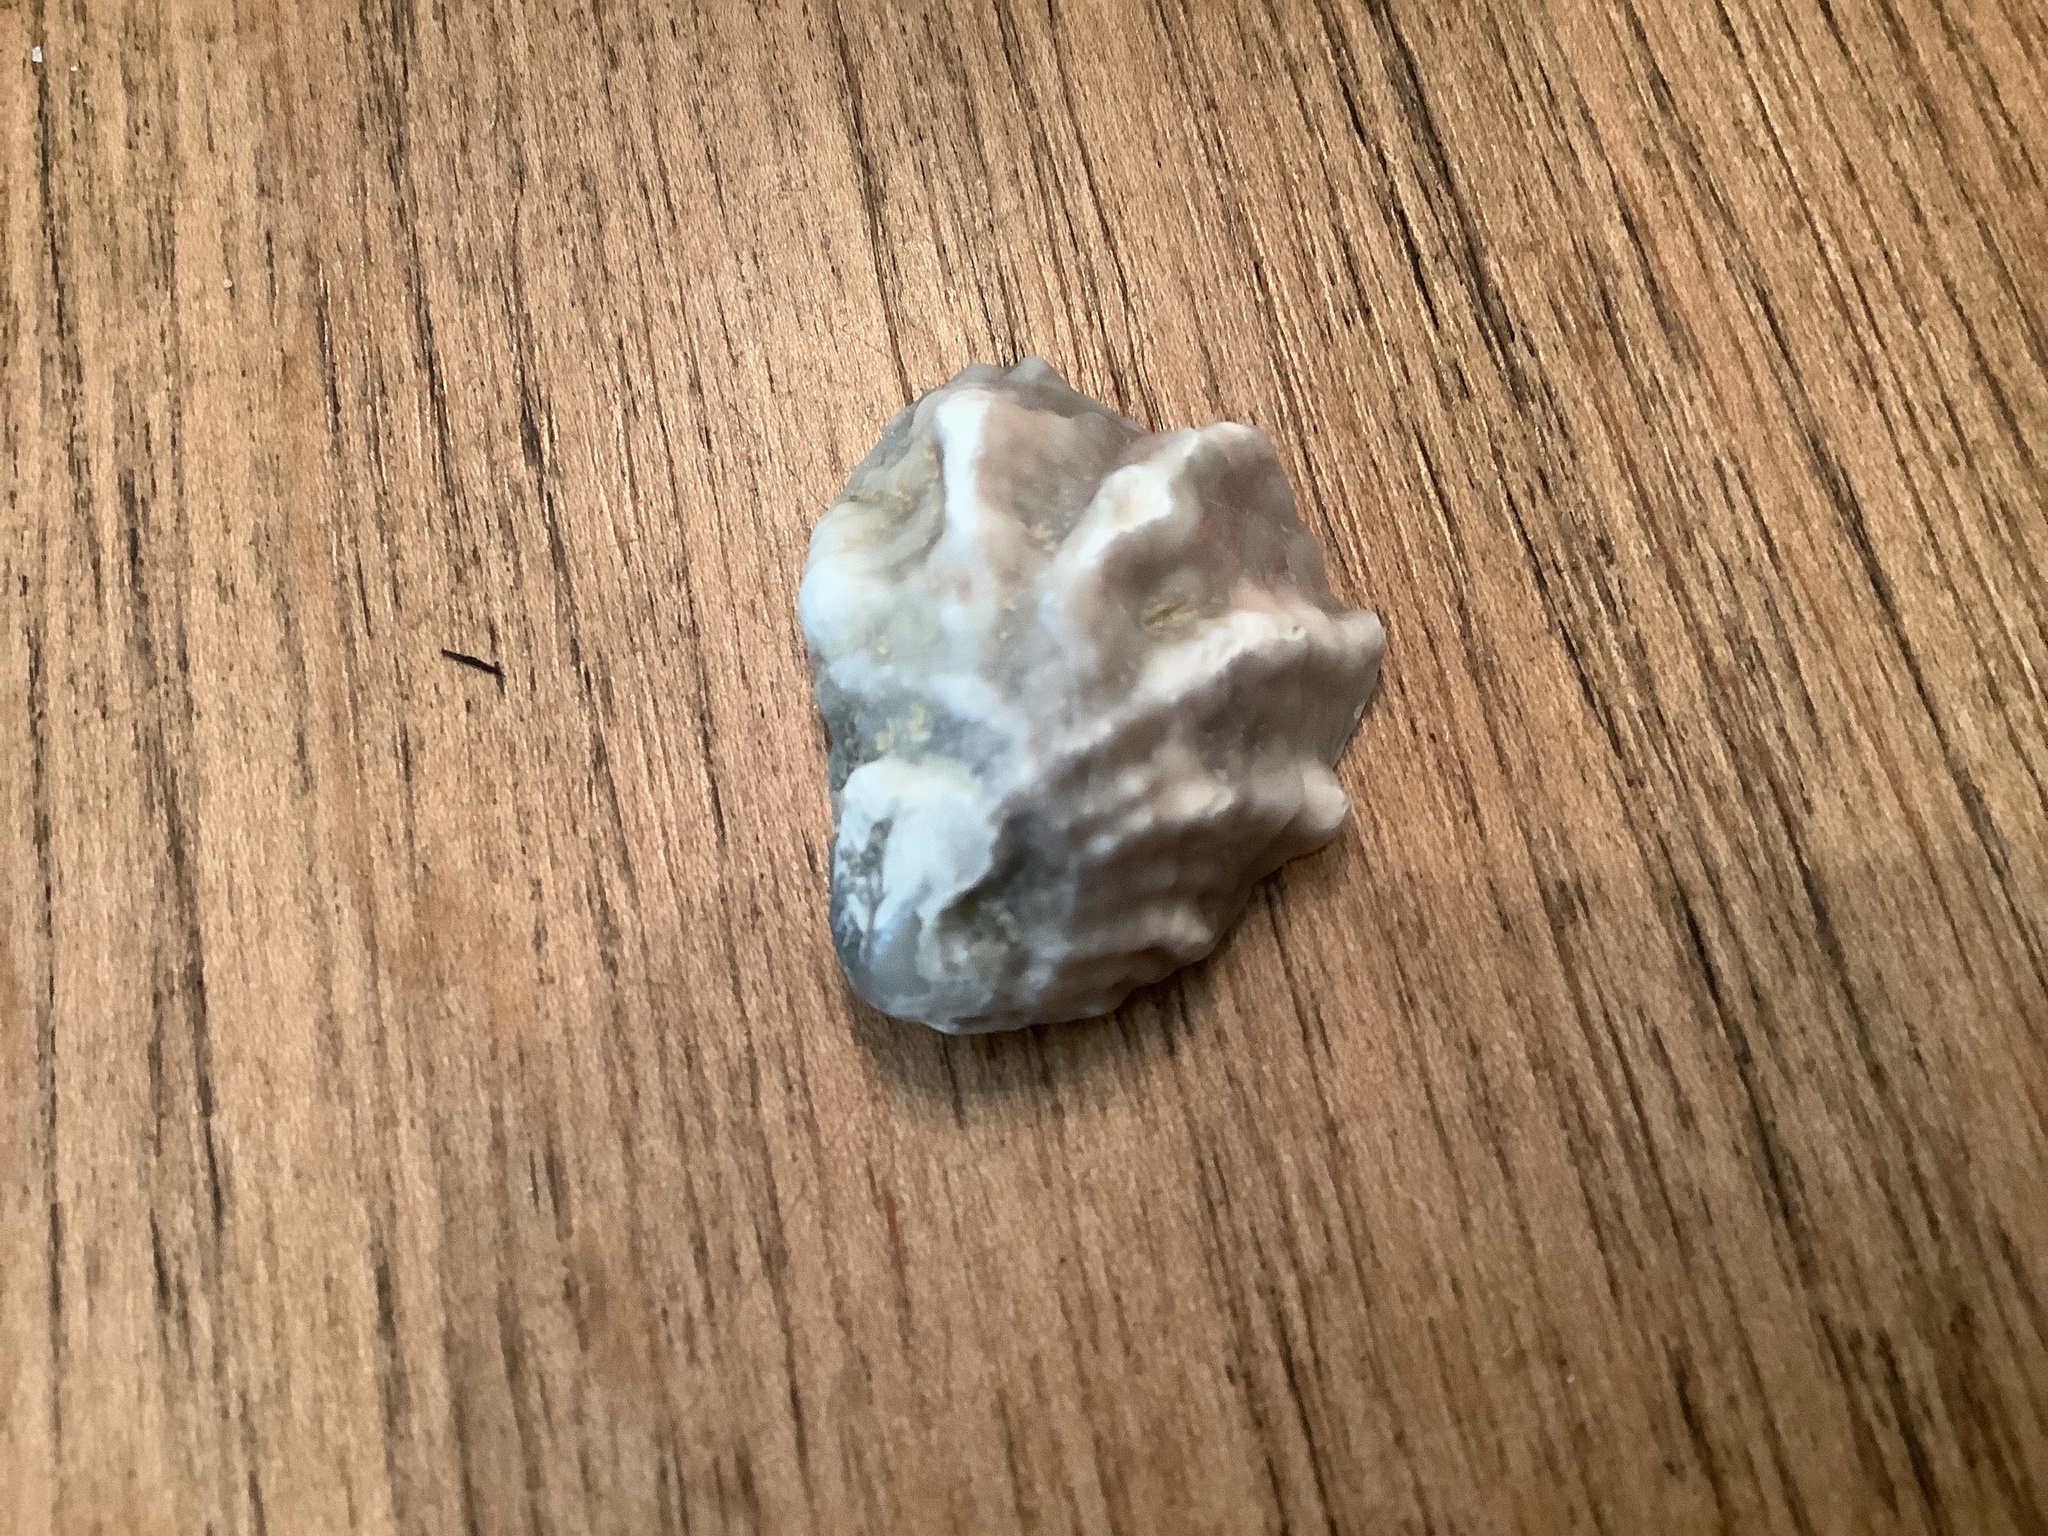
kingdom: Animalia
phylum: Mollusca
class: Bivalvia
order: Ostreida
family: Ostreidae
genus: Crassostrea
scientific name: Crassostrea virginica
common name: American oyster
